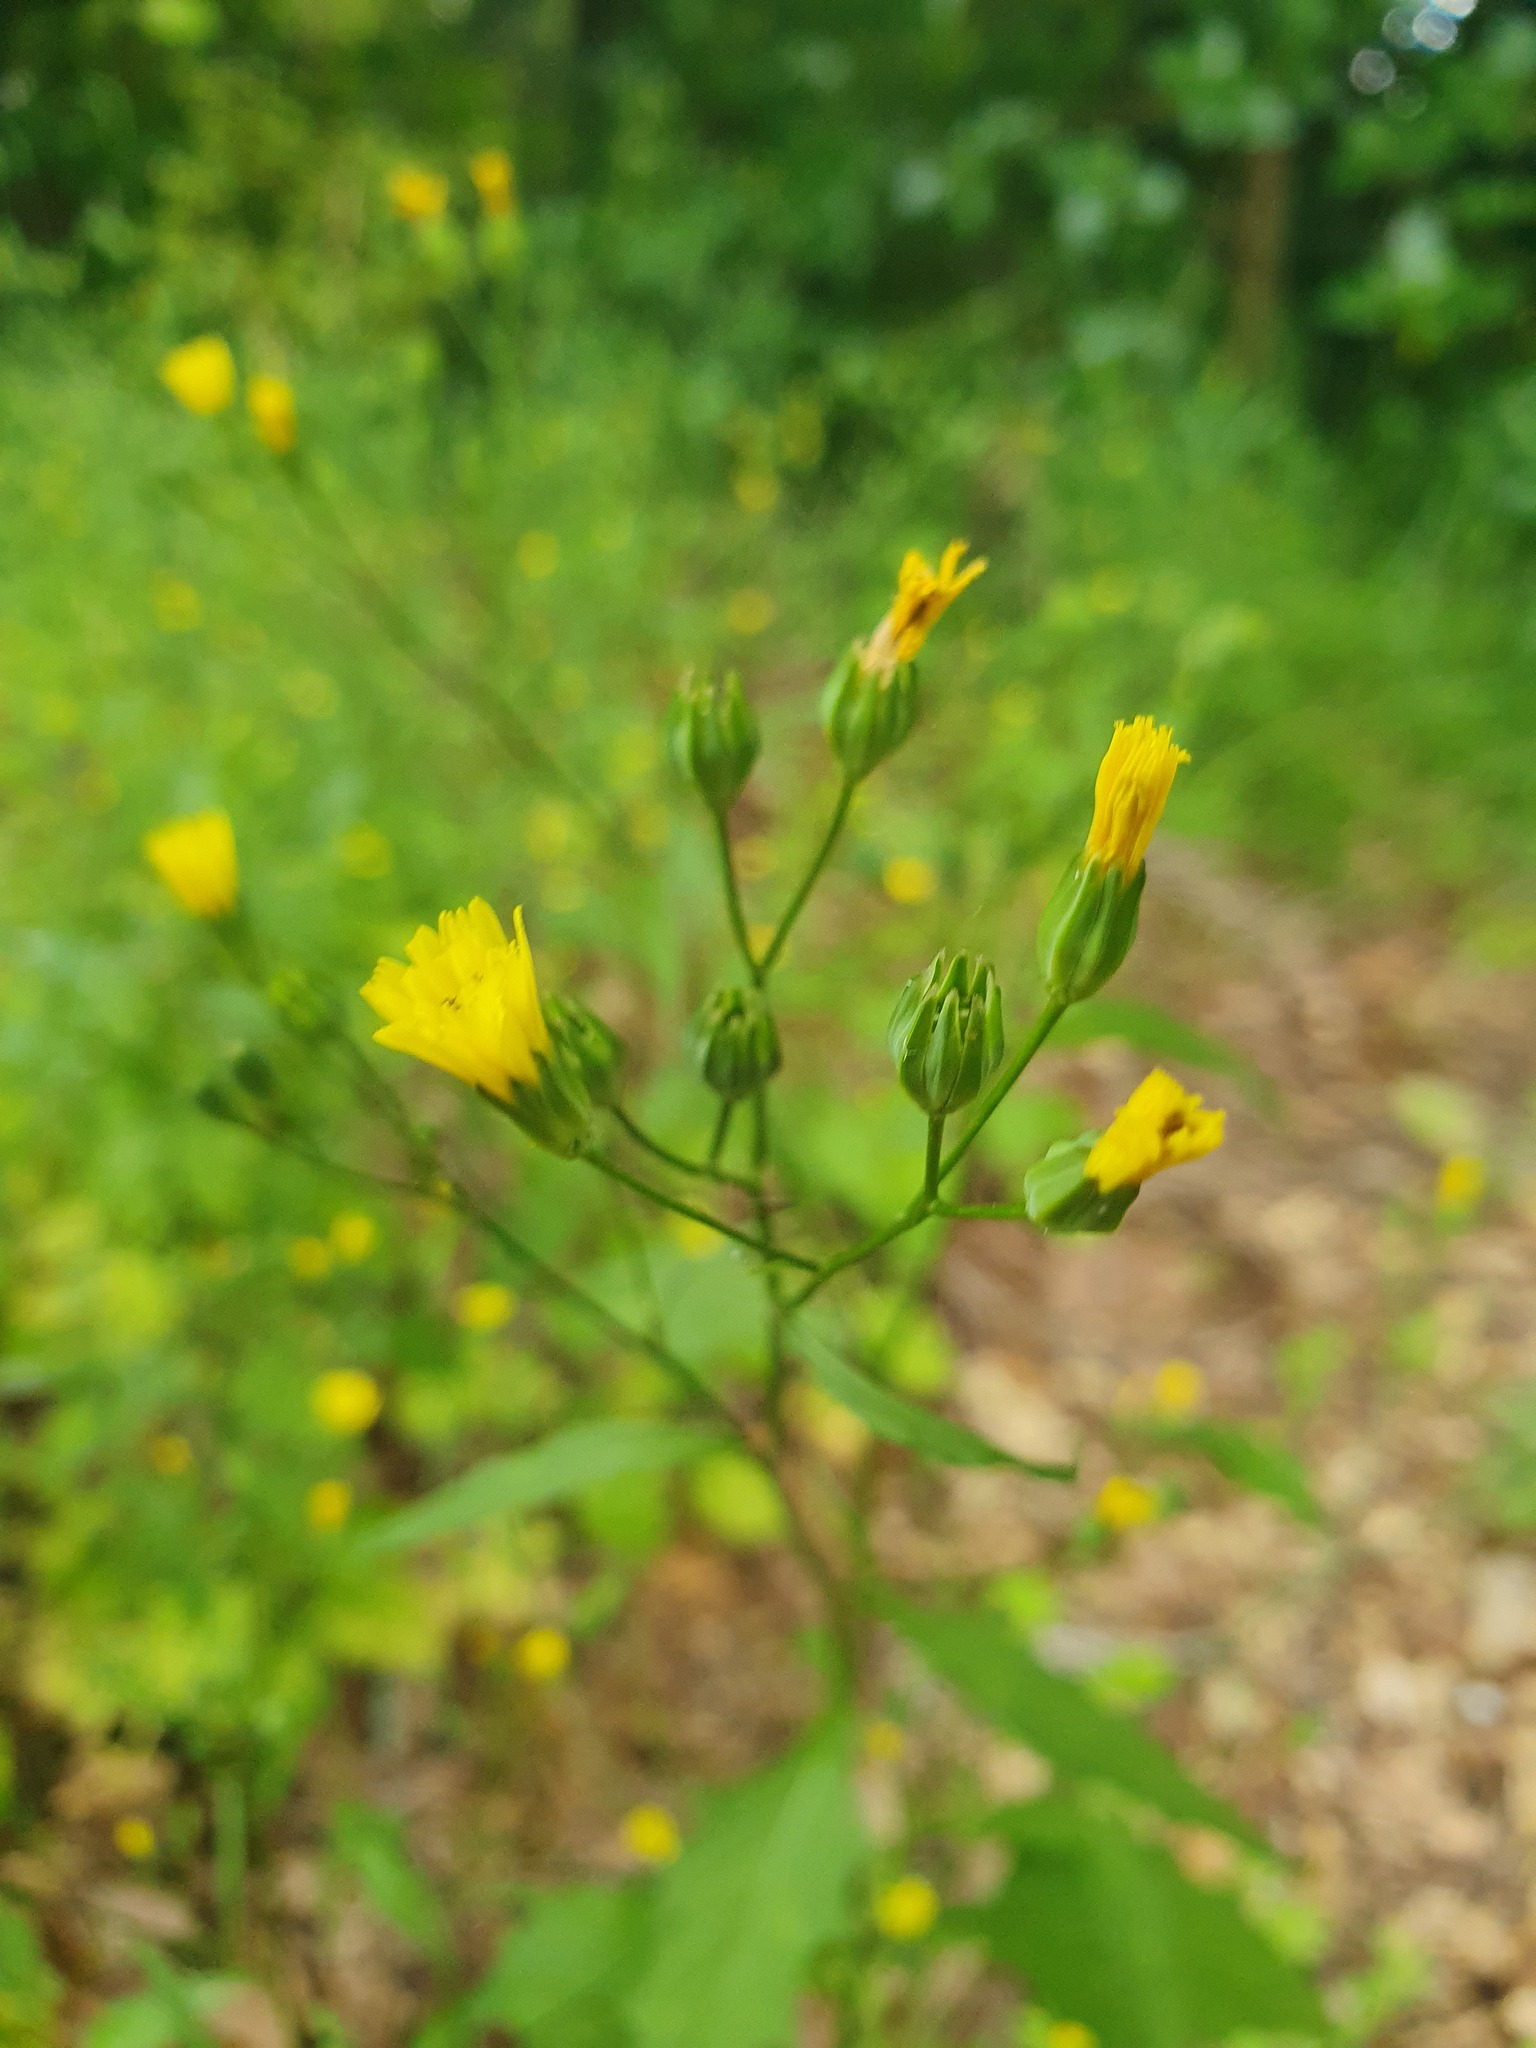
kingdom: Plantae
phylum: Tracheophyta
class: Magnoliopsida
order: Asterales
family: Asteraceae
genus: Lapsana
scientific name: Lapsana communis
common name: Nipplewort
